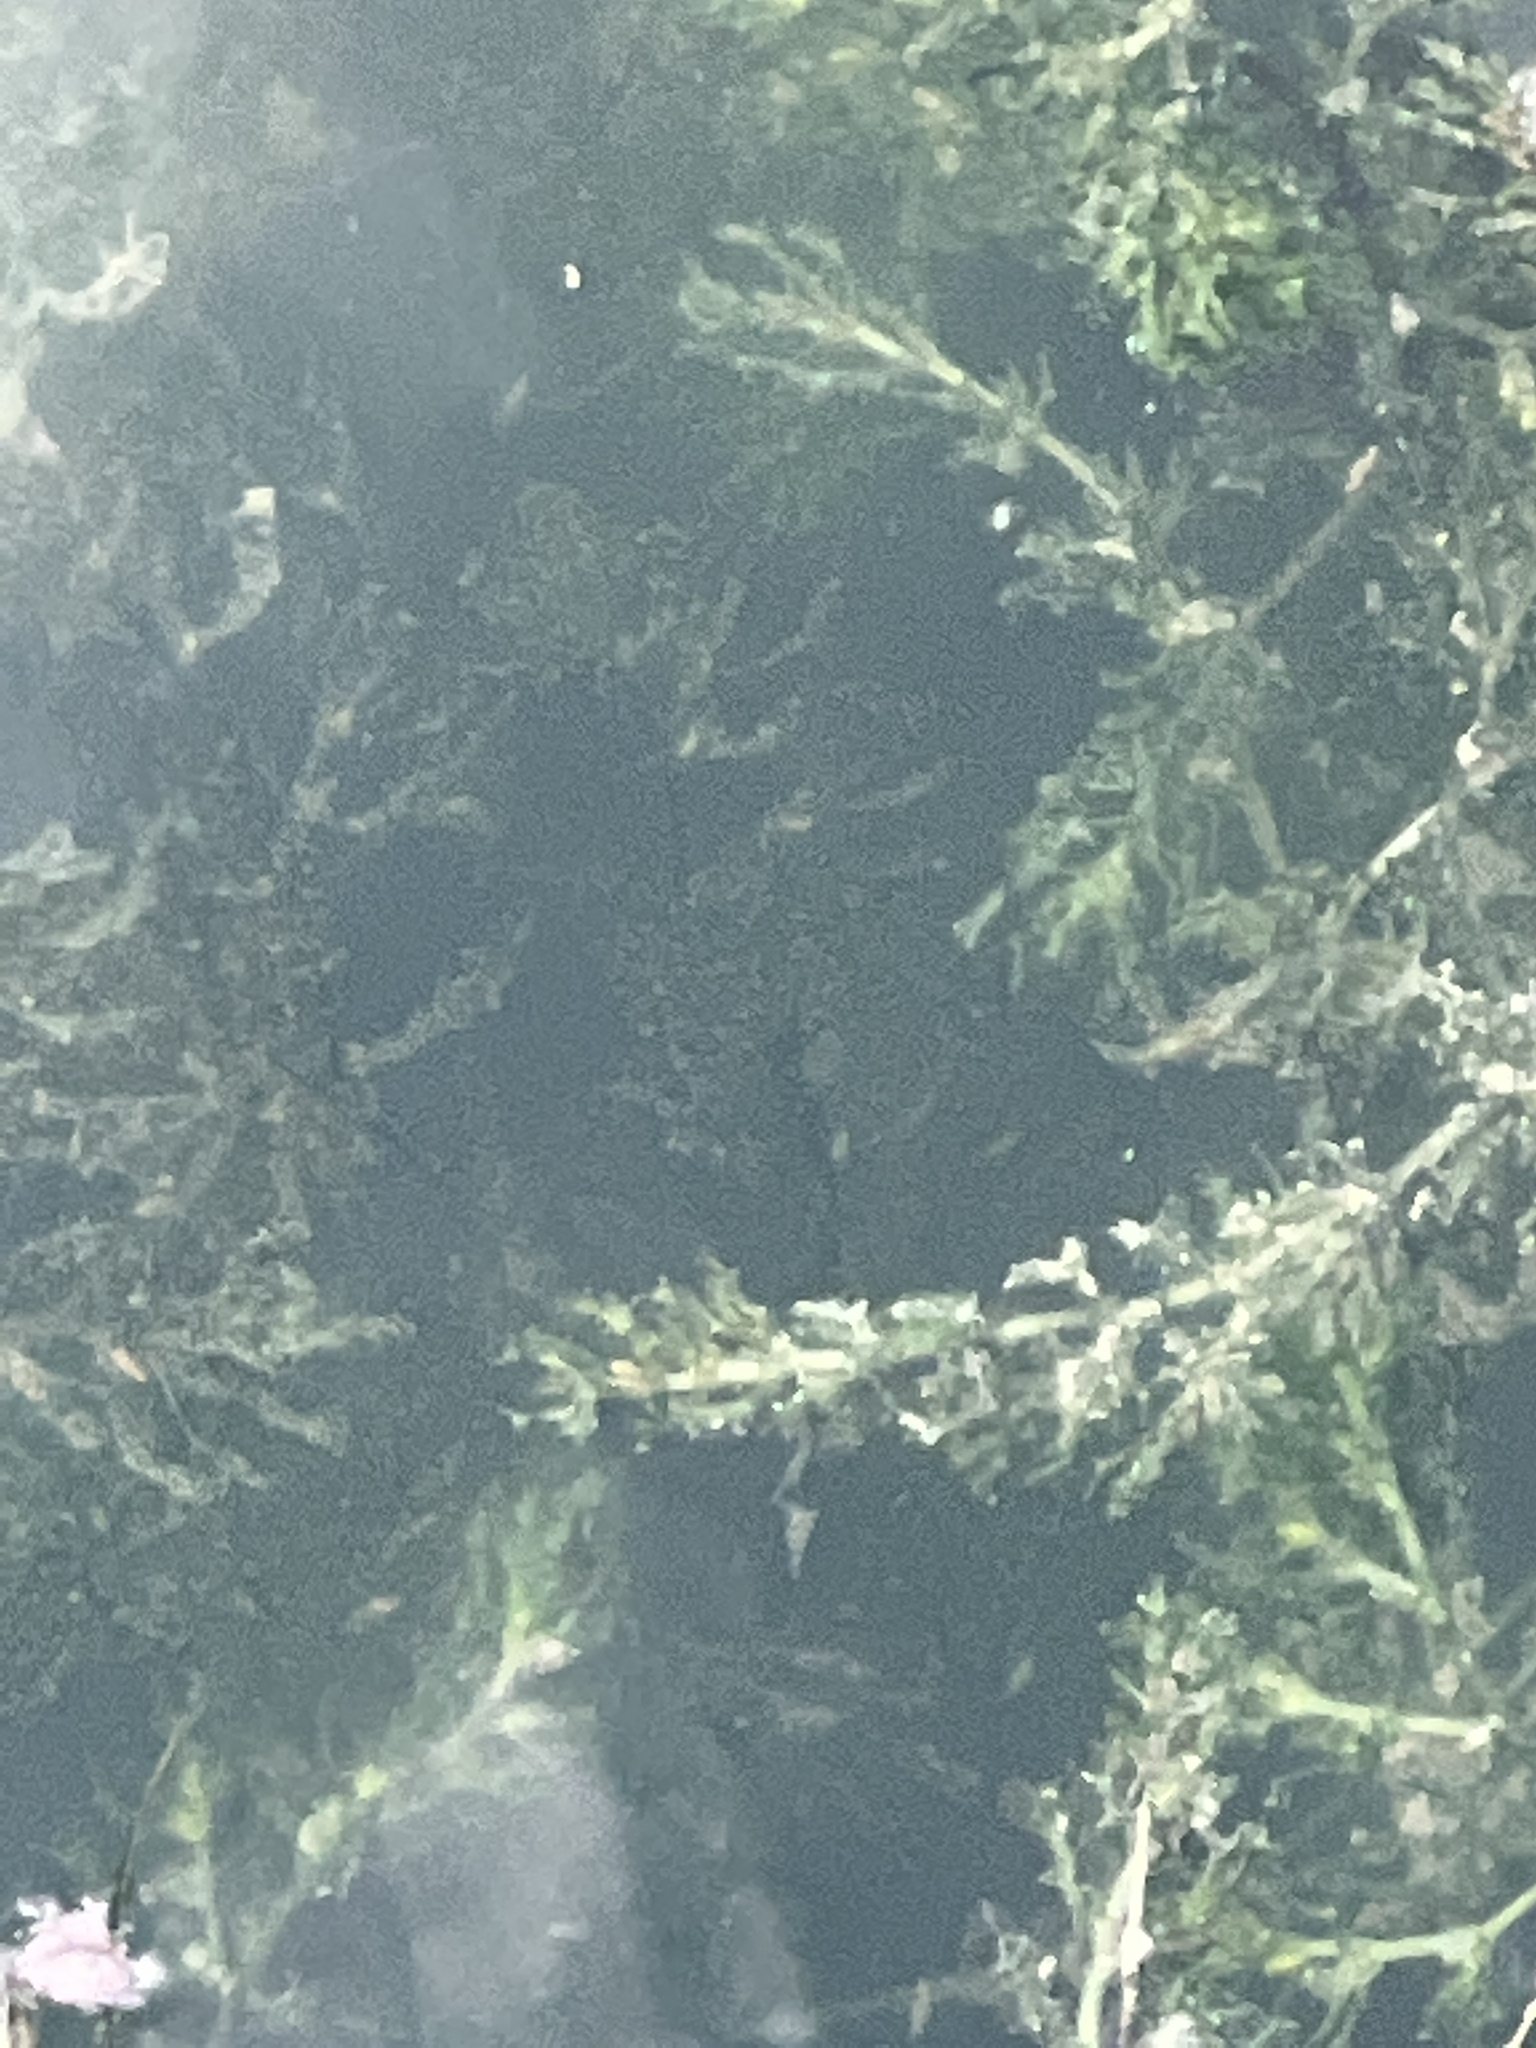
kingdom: Plantae
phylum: Tracheophyta
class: Liliopsida
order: Alismatales
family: Hydrocharitaceae
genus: Najas
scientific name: Najas marina
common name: Holly-leaved naiad
